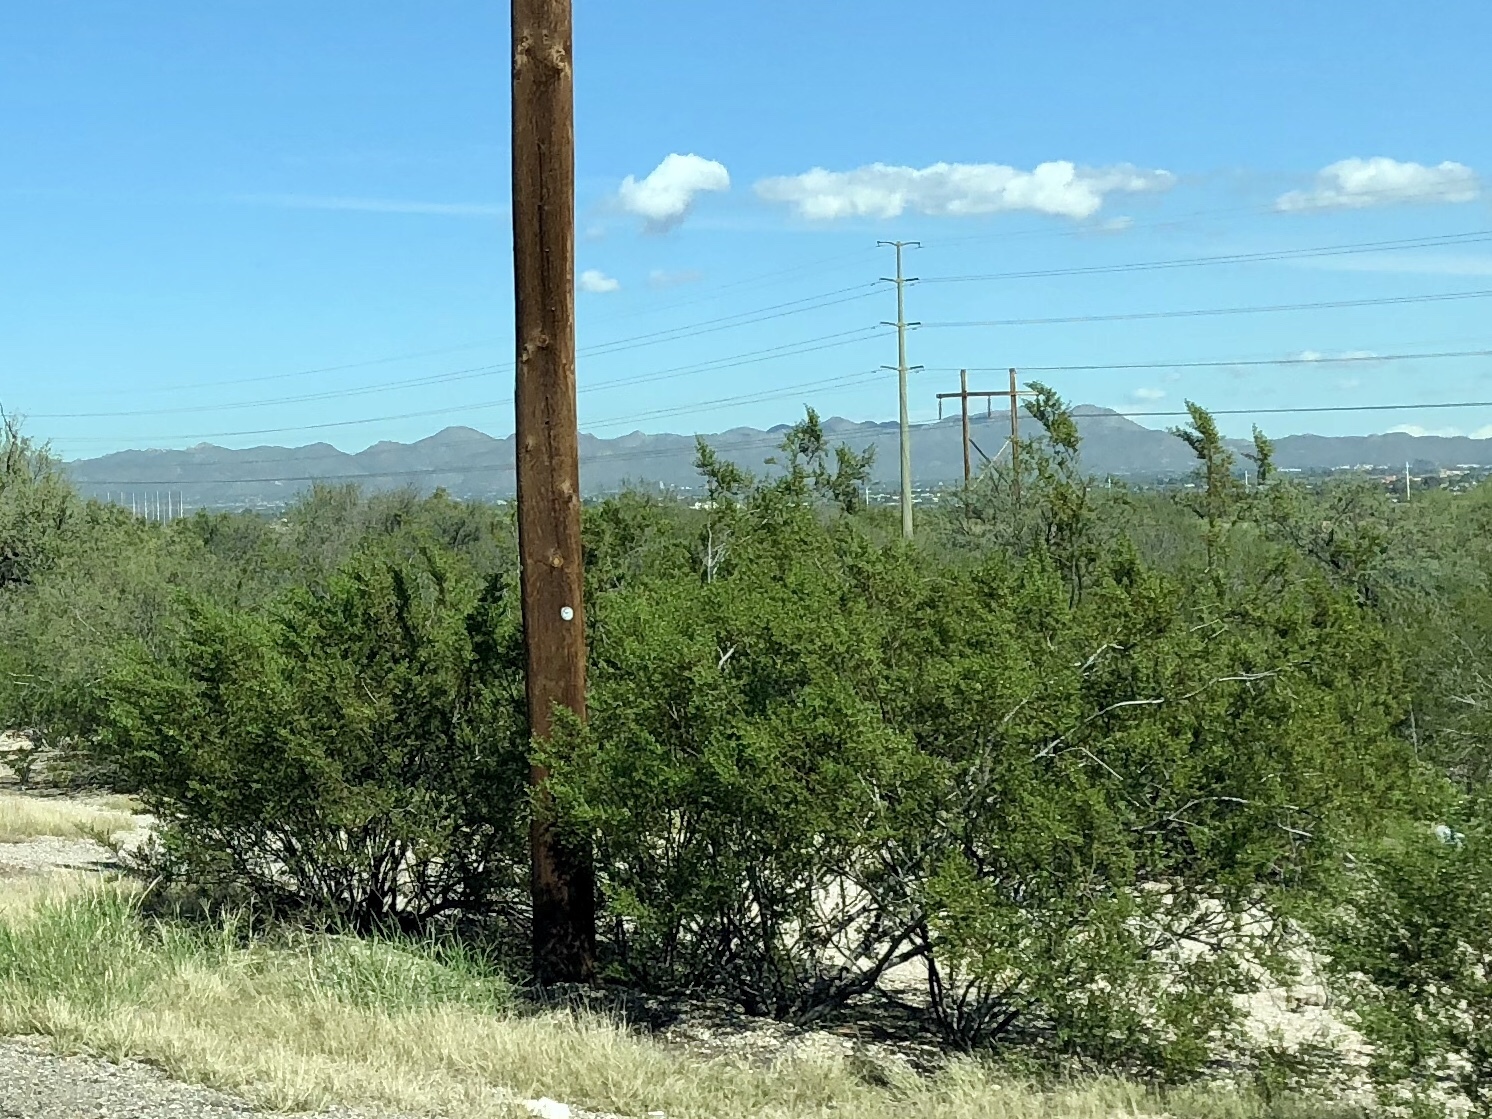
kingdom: Plantae
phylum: Tracheophyta
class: Magnoliopsida
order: Zygophyllales
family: Zygophyllaceae
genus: Larrea
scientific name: Larrea tridentata
